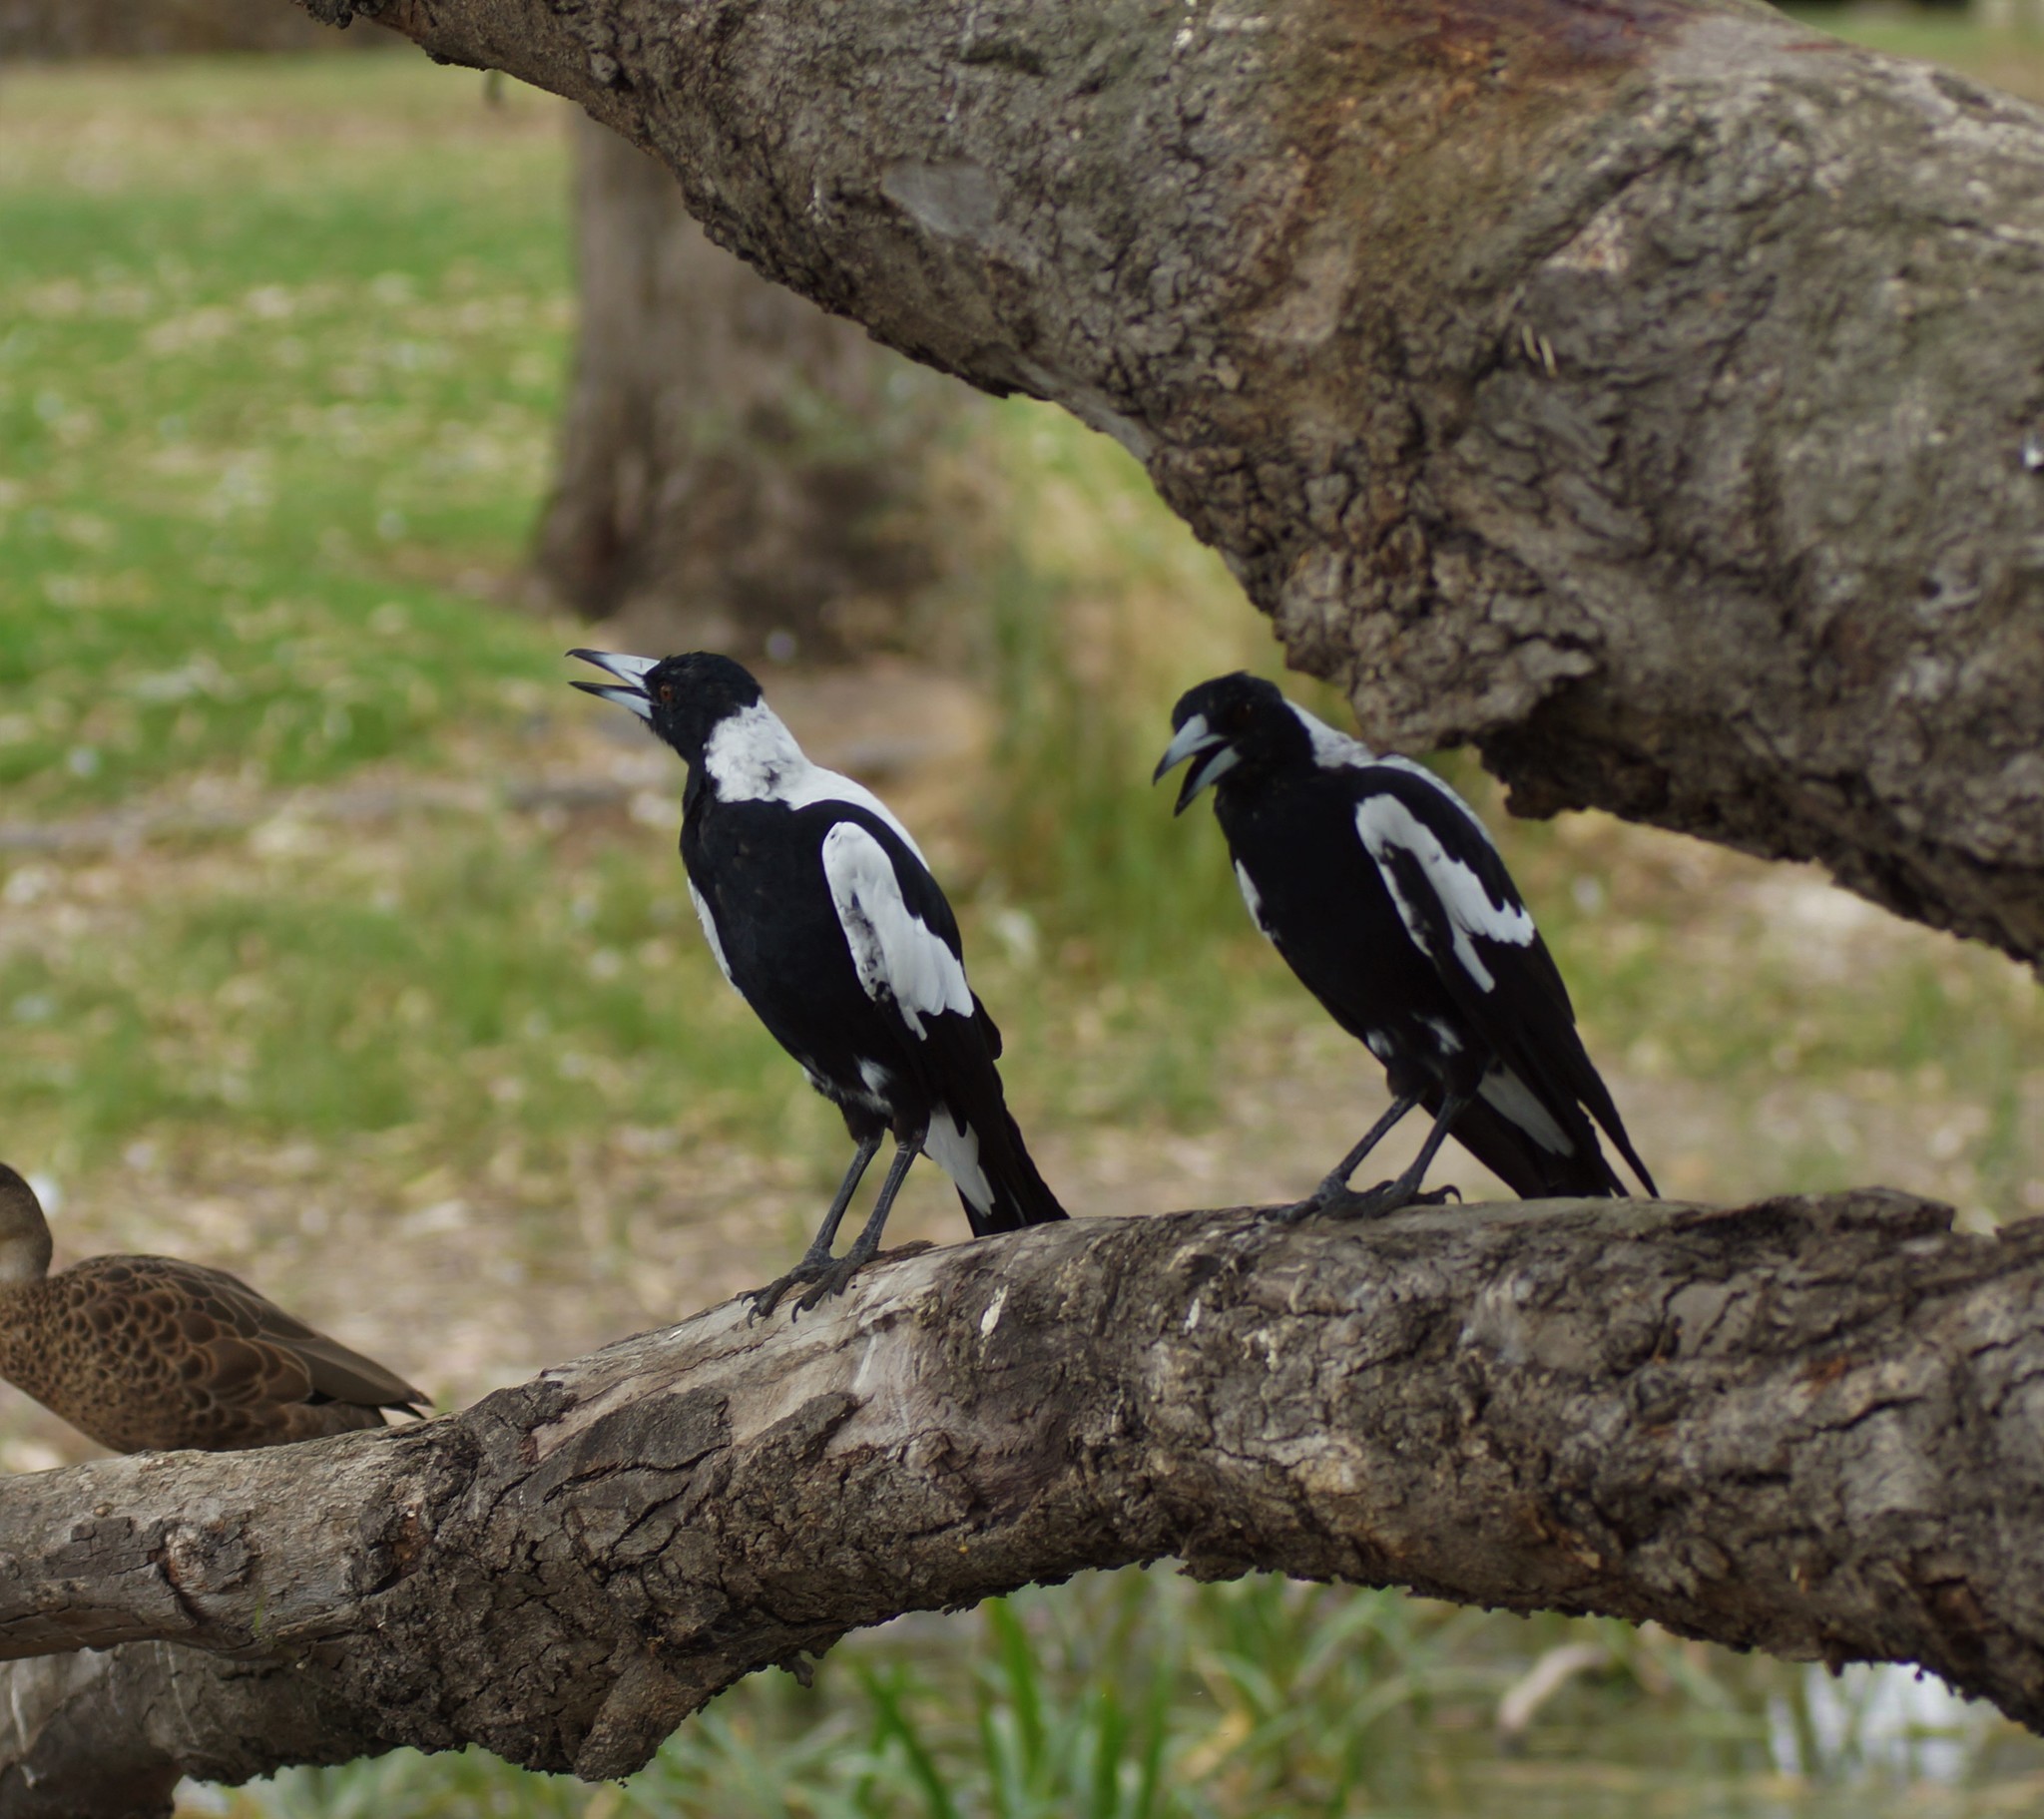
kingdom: Animalia
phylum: Chordata
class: Aves
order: Passeriformes
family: Cracticidae
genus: Gymnorhina
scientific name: Gymnorhina tibicen
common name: Australian magpie
